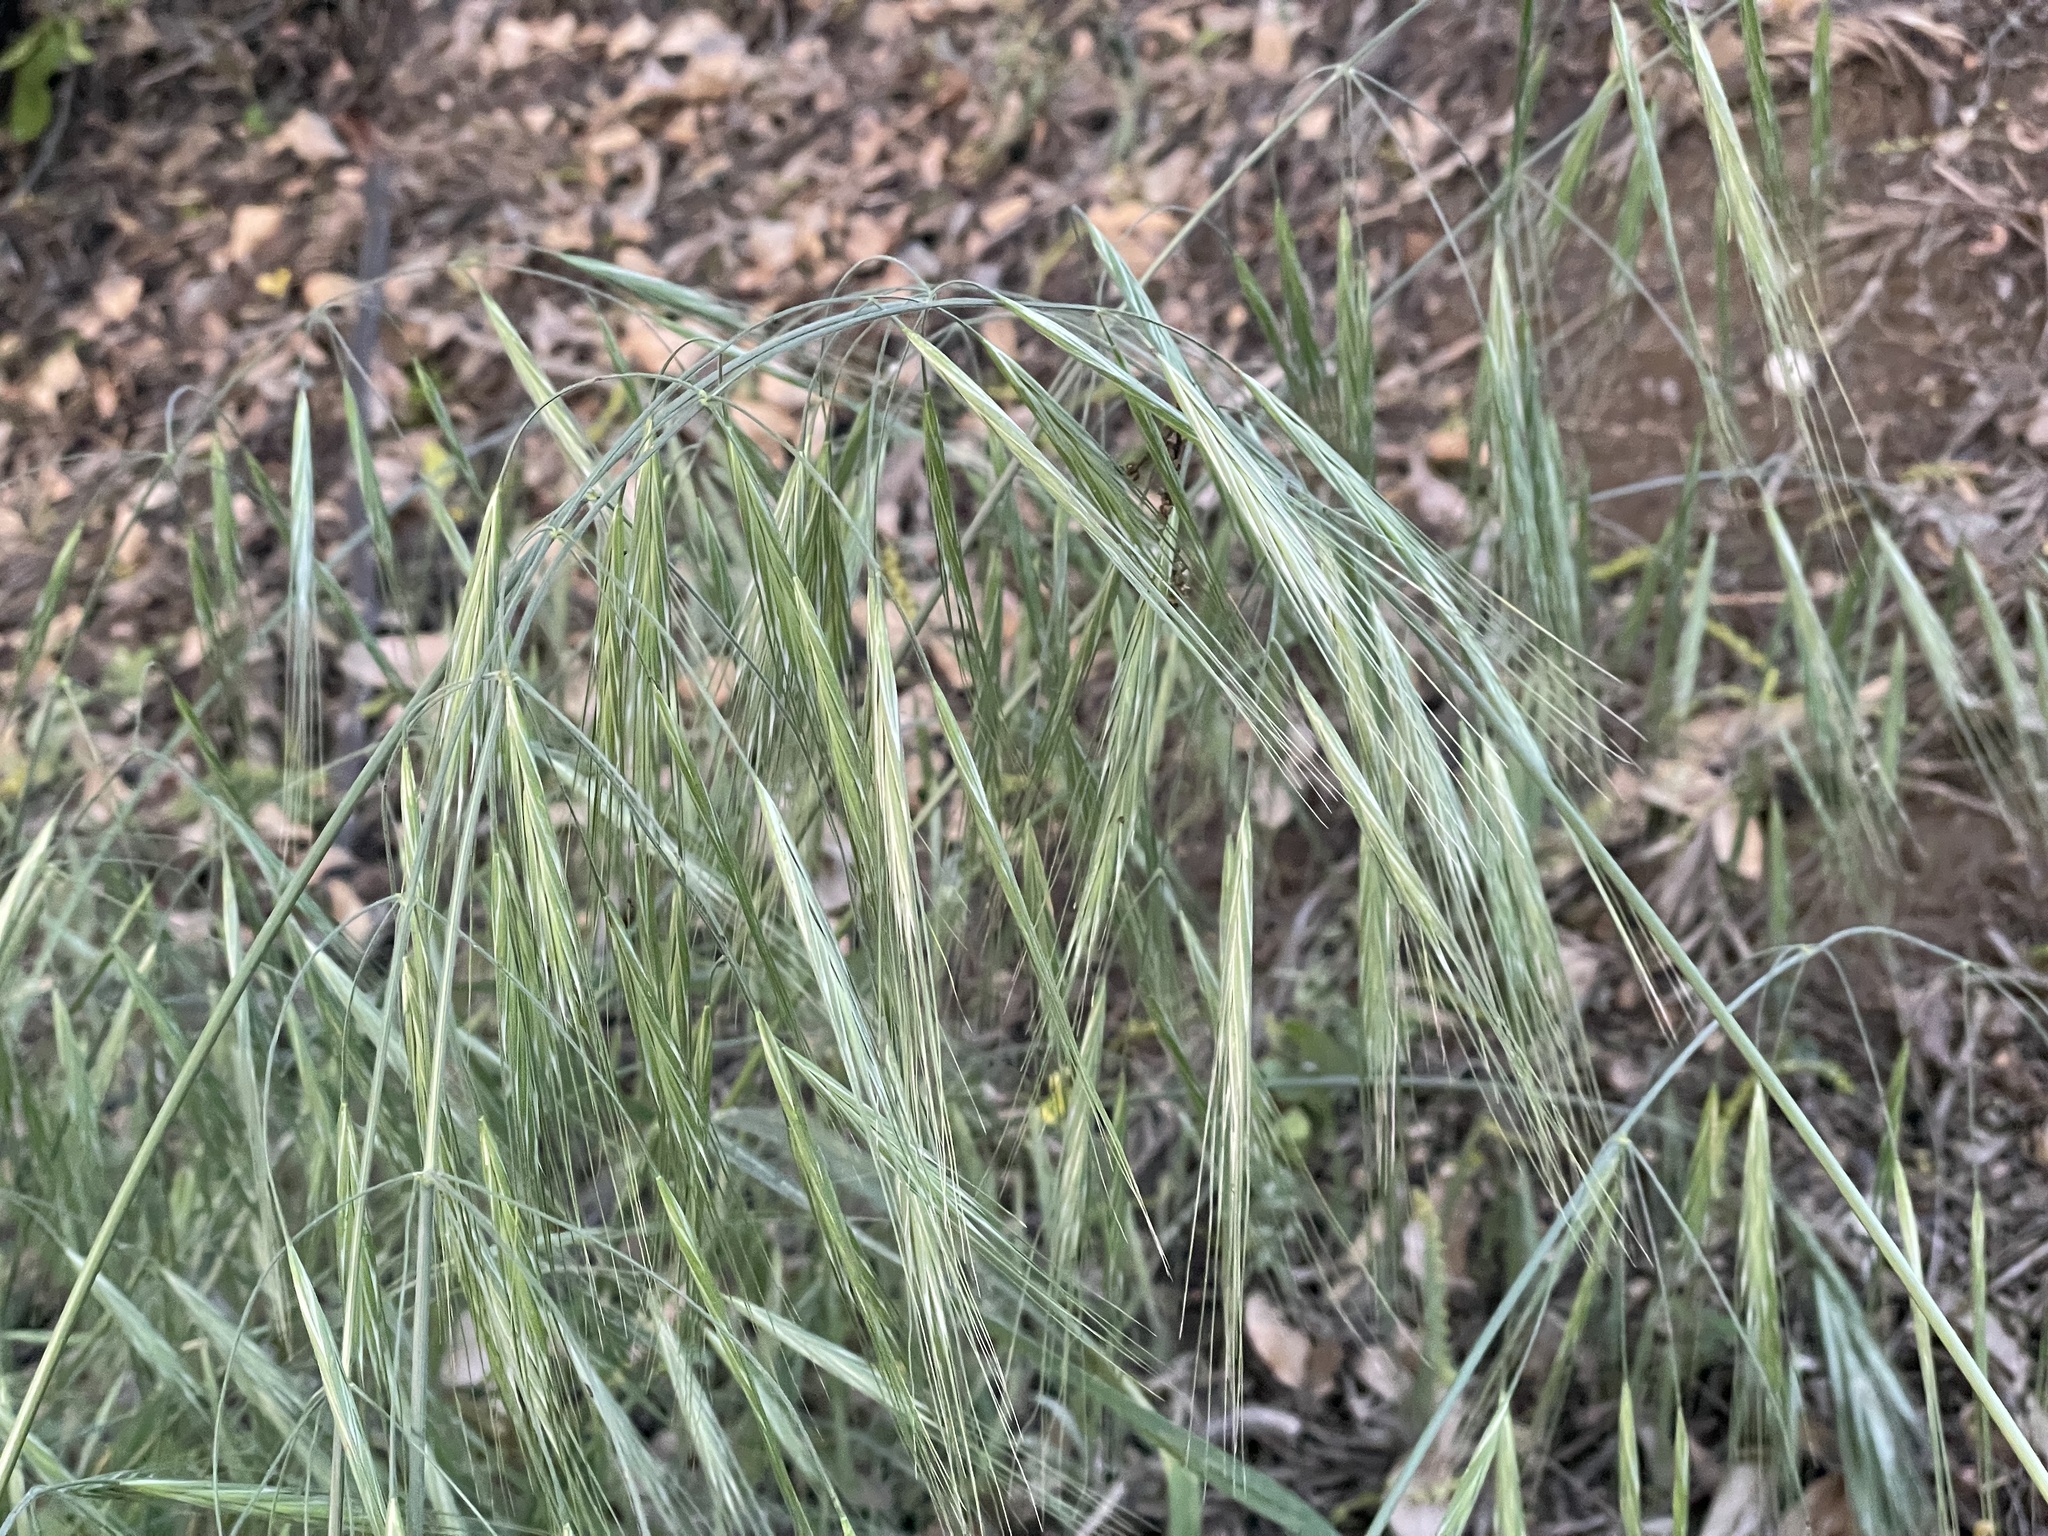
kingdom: Plantae
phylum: Tracheophyta
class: Liliopsida
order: Poales
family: Poaceae
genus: Bromus
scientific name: Bromus diandrus
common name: Ripgut brome
